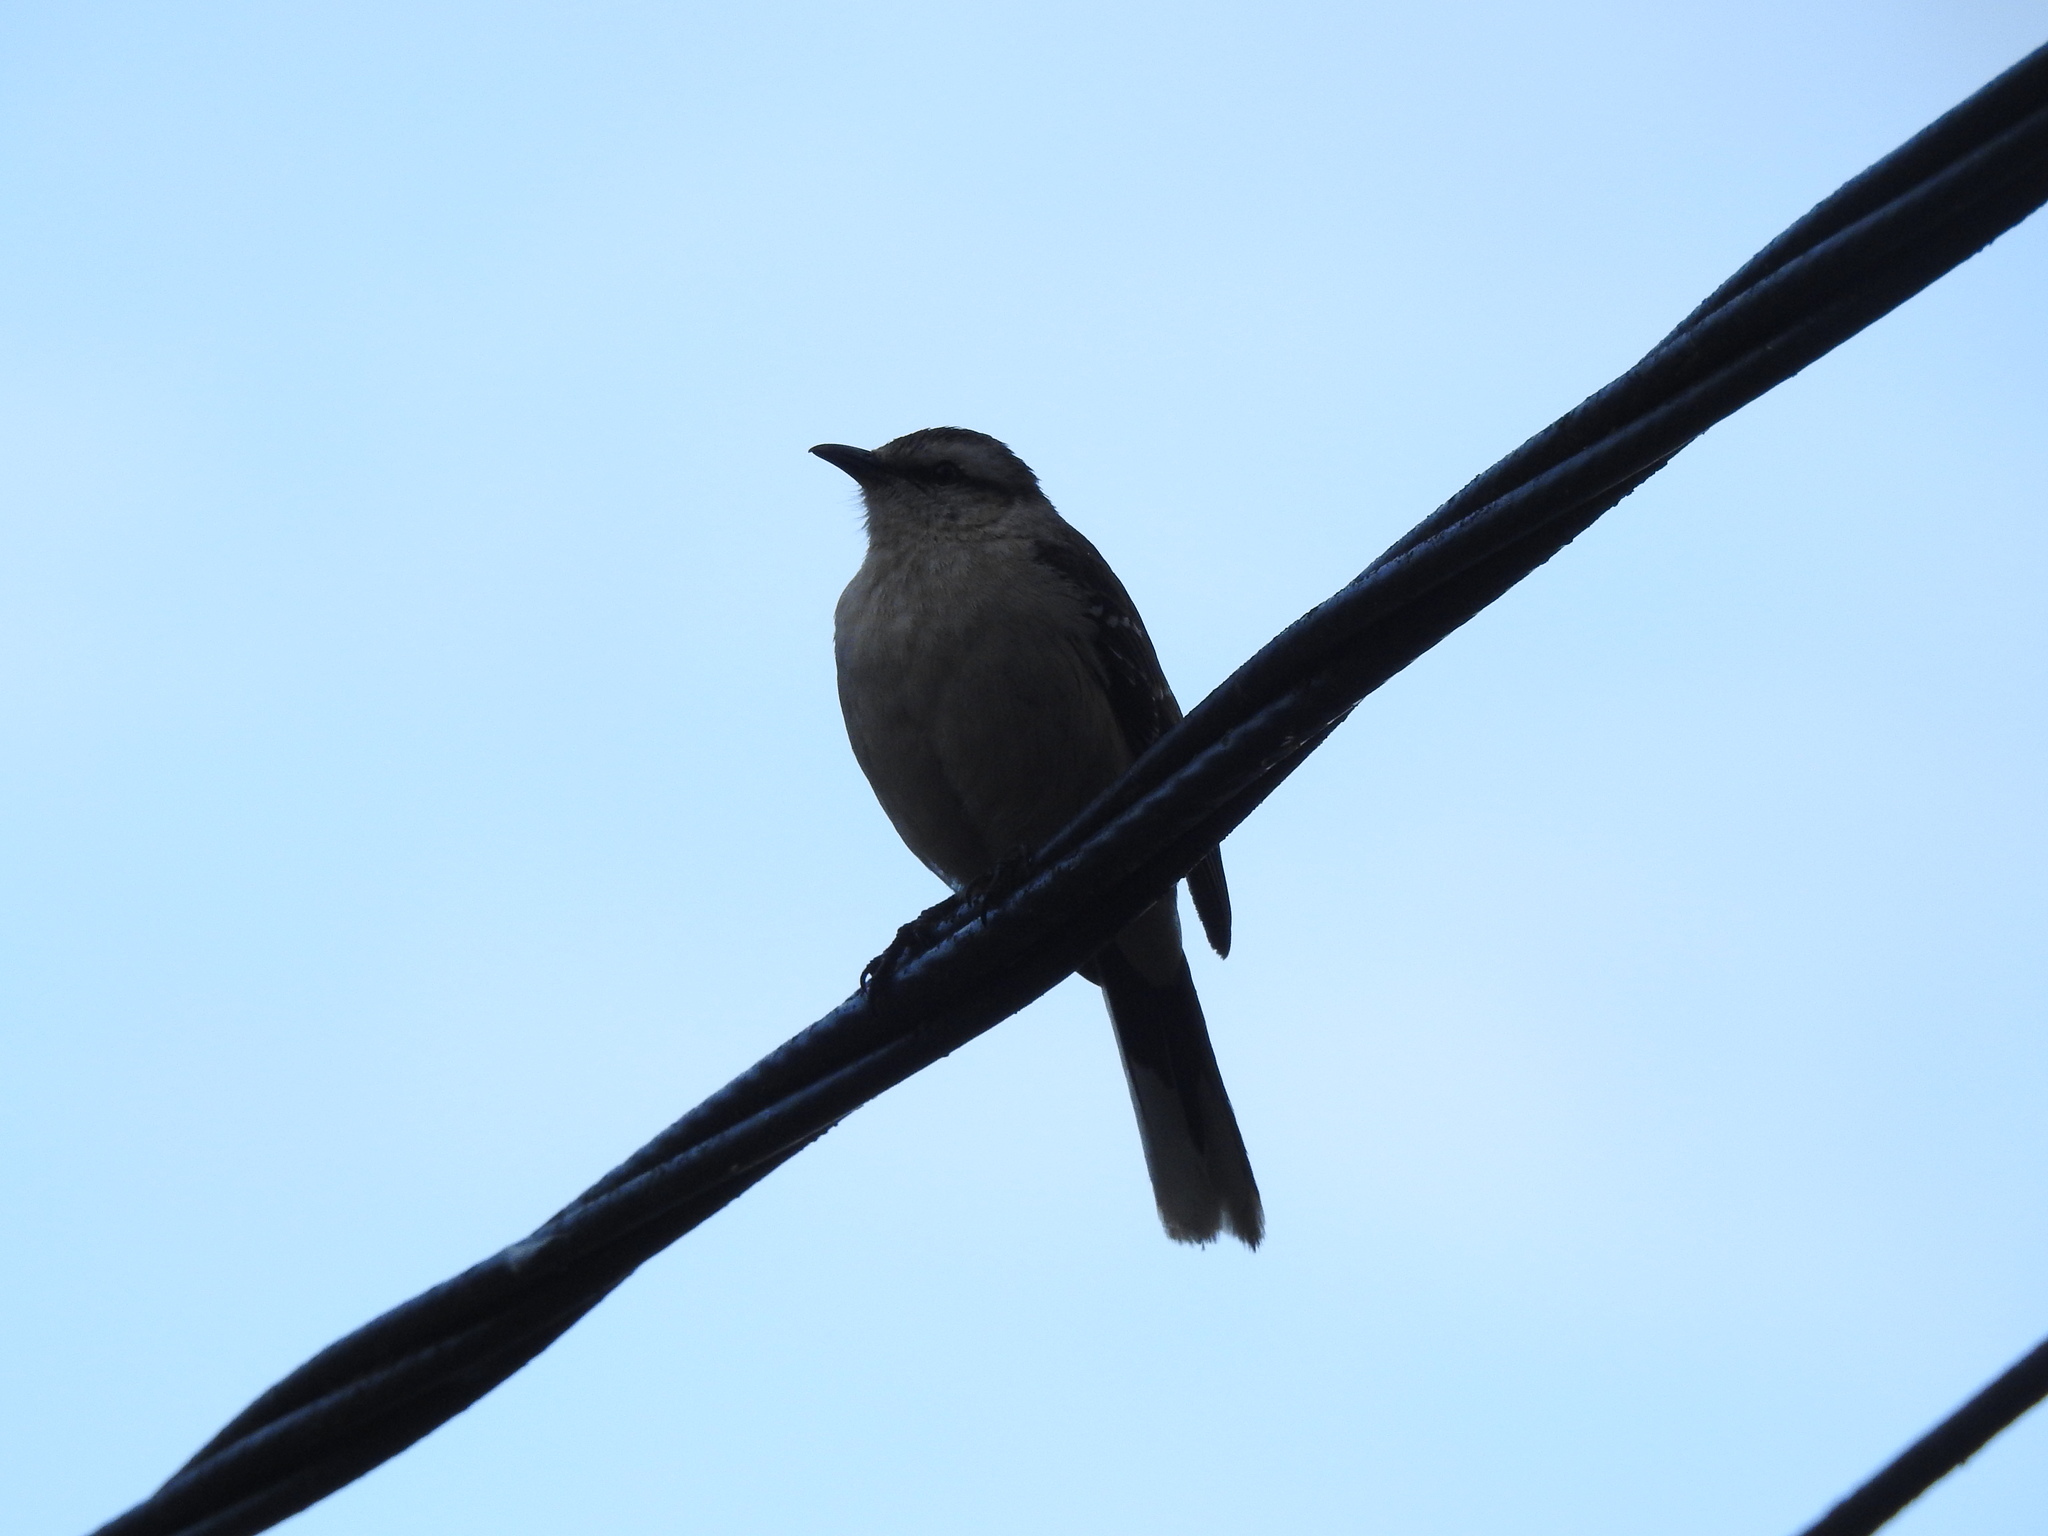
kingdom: Animalia
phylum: Chordata
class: Aves
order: Passeriformes
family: Mimidae
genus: Mimus
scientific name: Mimus saturninus
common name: Chalk-browed mockingbird
